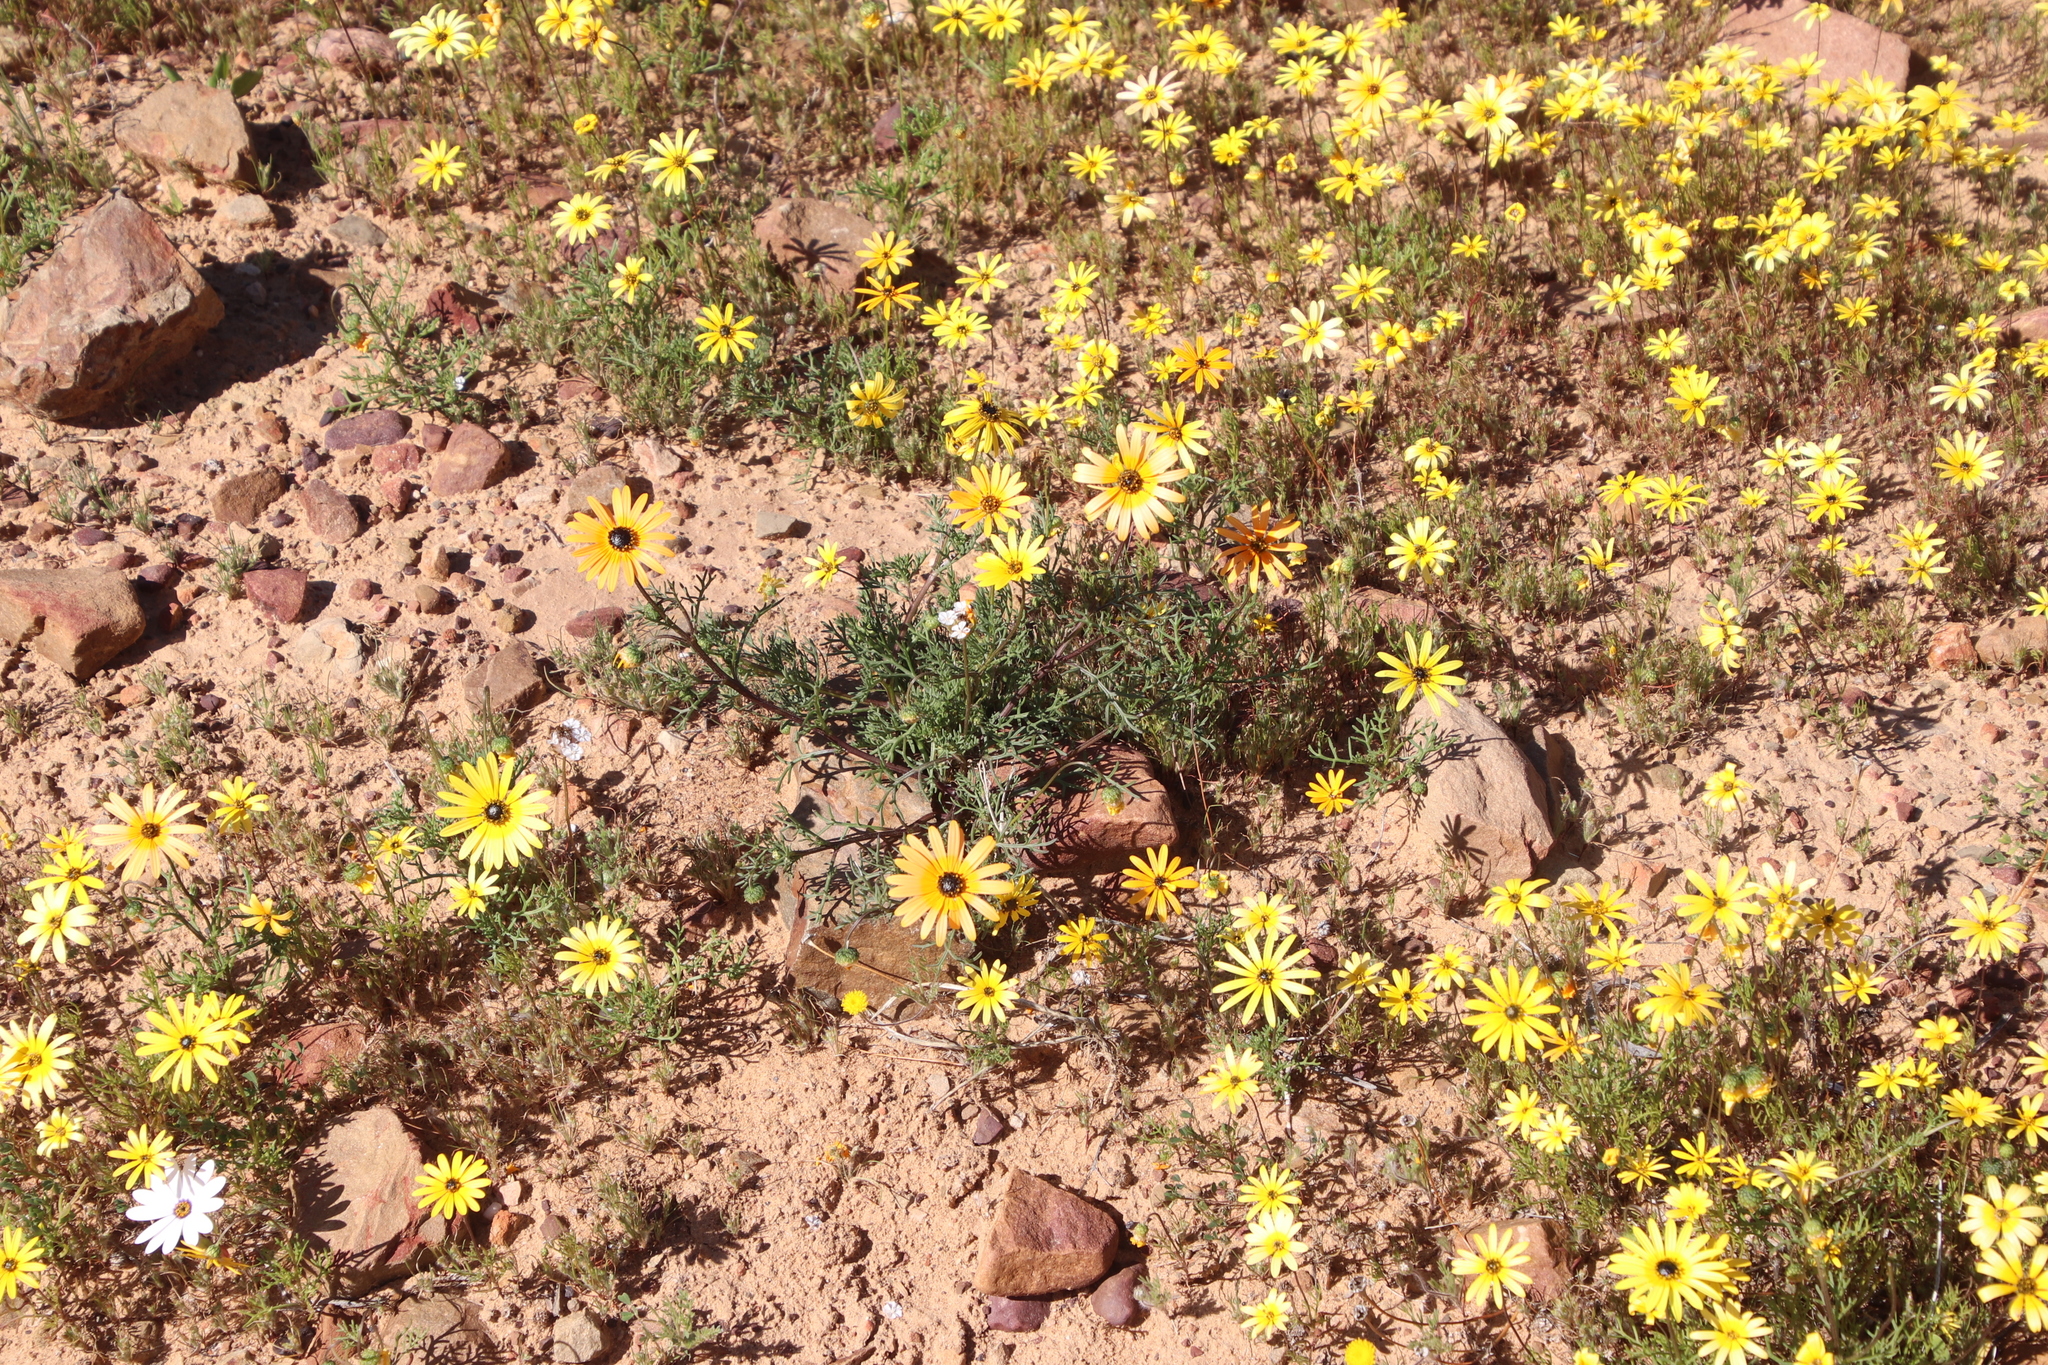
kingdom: Plantae
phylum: Tracheophyta
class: Magnoliopsida
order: Asterales
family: Asteraceae
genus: Dimorphotheca
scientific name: Dimorphotheca sinuata
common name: Glandular cape marigold
